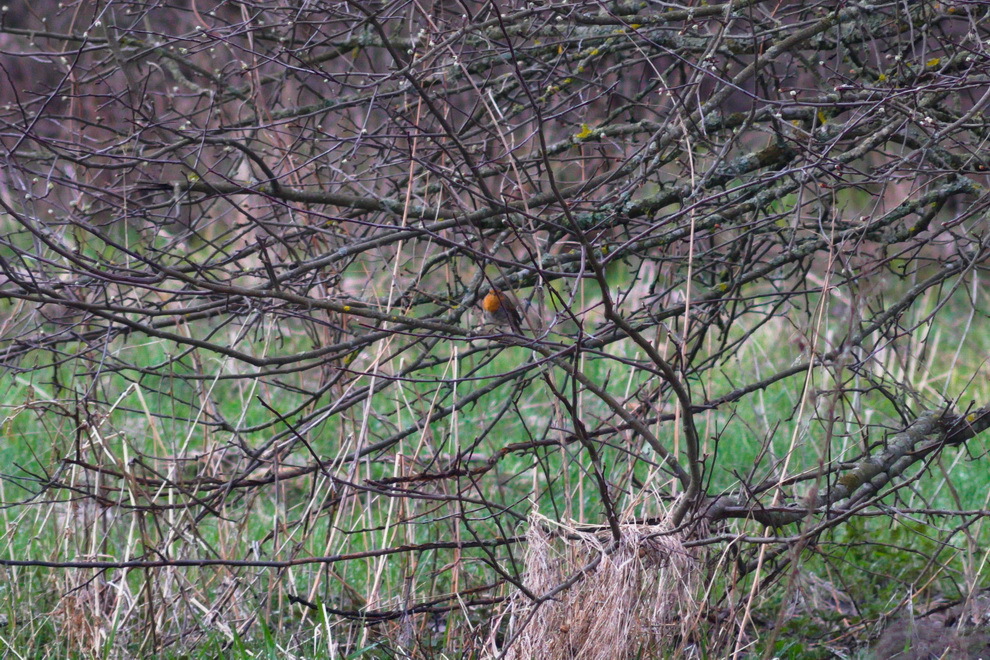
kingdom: Animalia
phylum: Chordata
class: Aves
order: Passeriformes
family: Muscicapidae
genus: Erithacus
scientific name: Erithacus rubecula
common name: European robin
